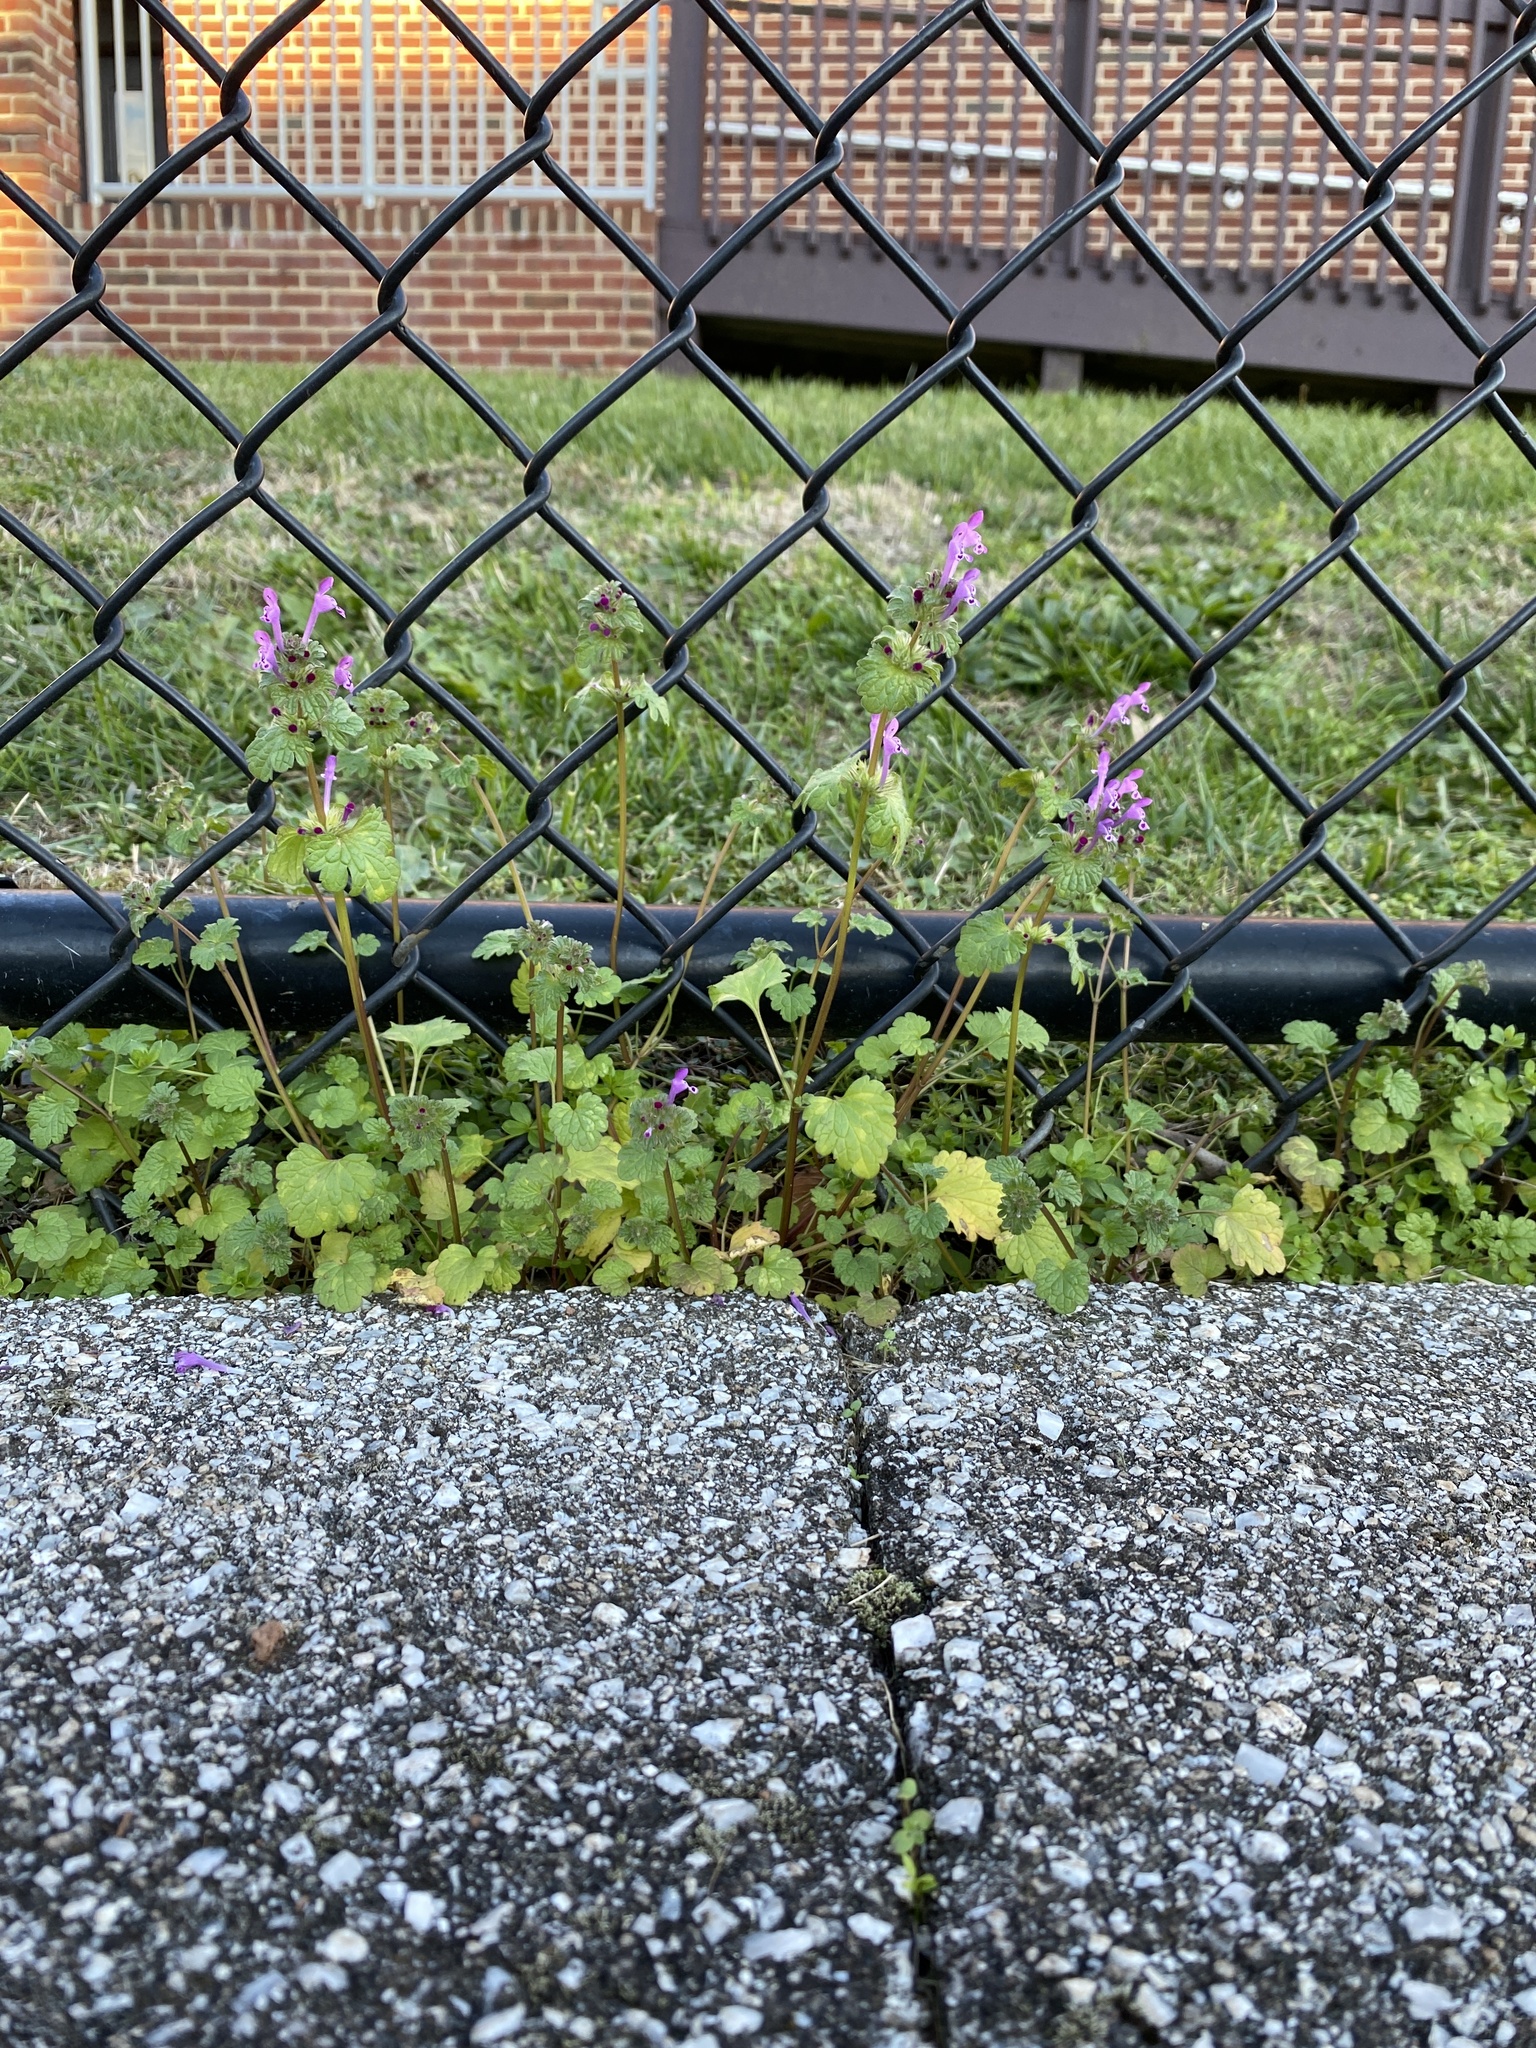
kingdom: Plantae
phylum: Tracheophyta
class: Magnoliopsida
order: Lamiales
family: Lamiaceae
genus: Lamium
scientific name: Lamium amplexicaule
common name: Henbit dead-nettle
